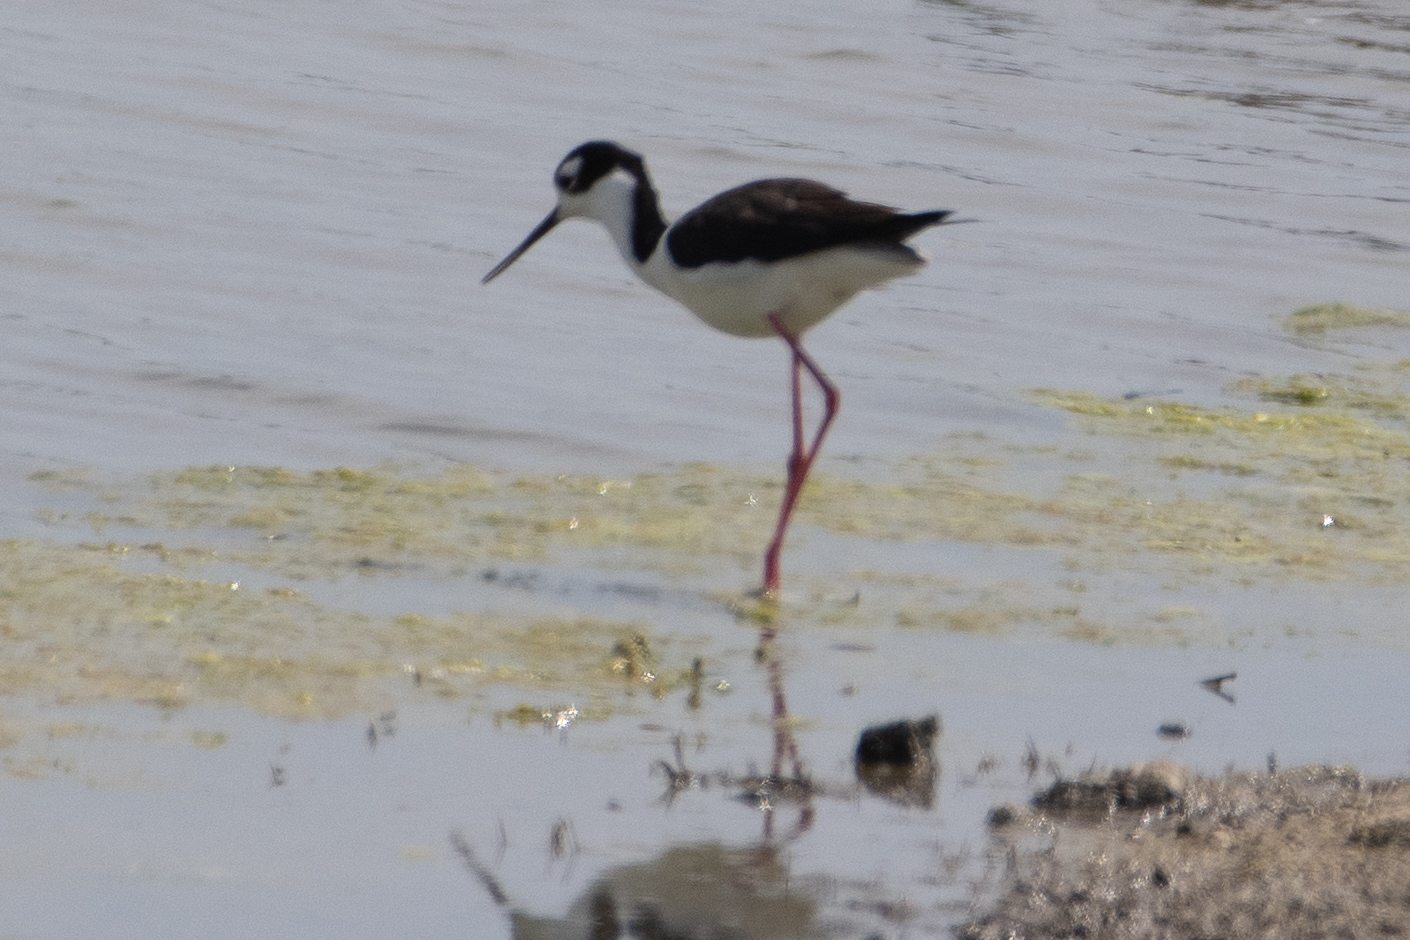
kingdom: Animalia
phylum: Chordata
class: Aves
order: Charadriiformes
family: Recurvirostridae
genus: Himantopus
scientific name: Himantopus mexicanus
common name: Black-necked stilt
